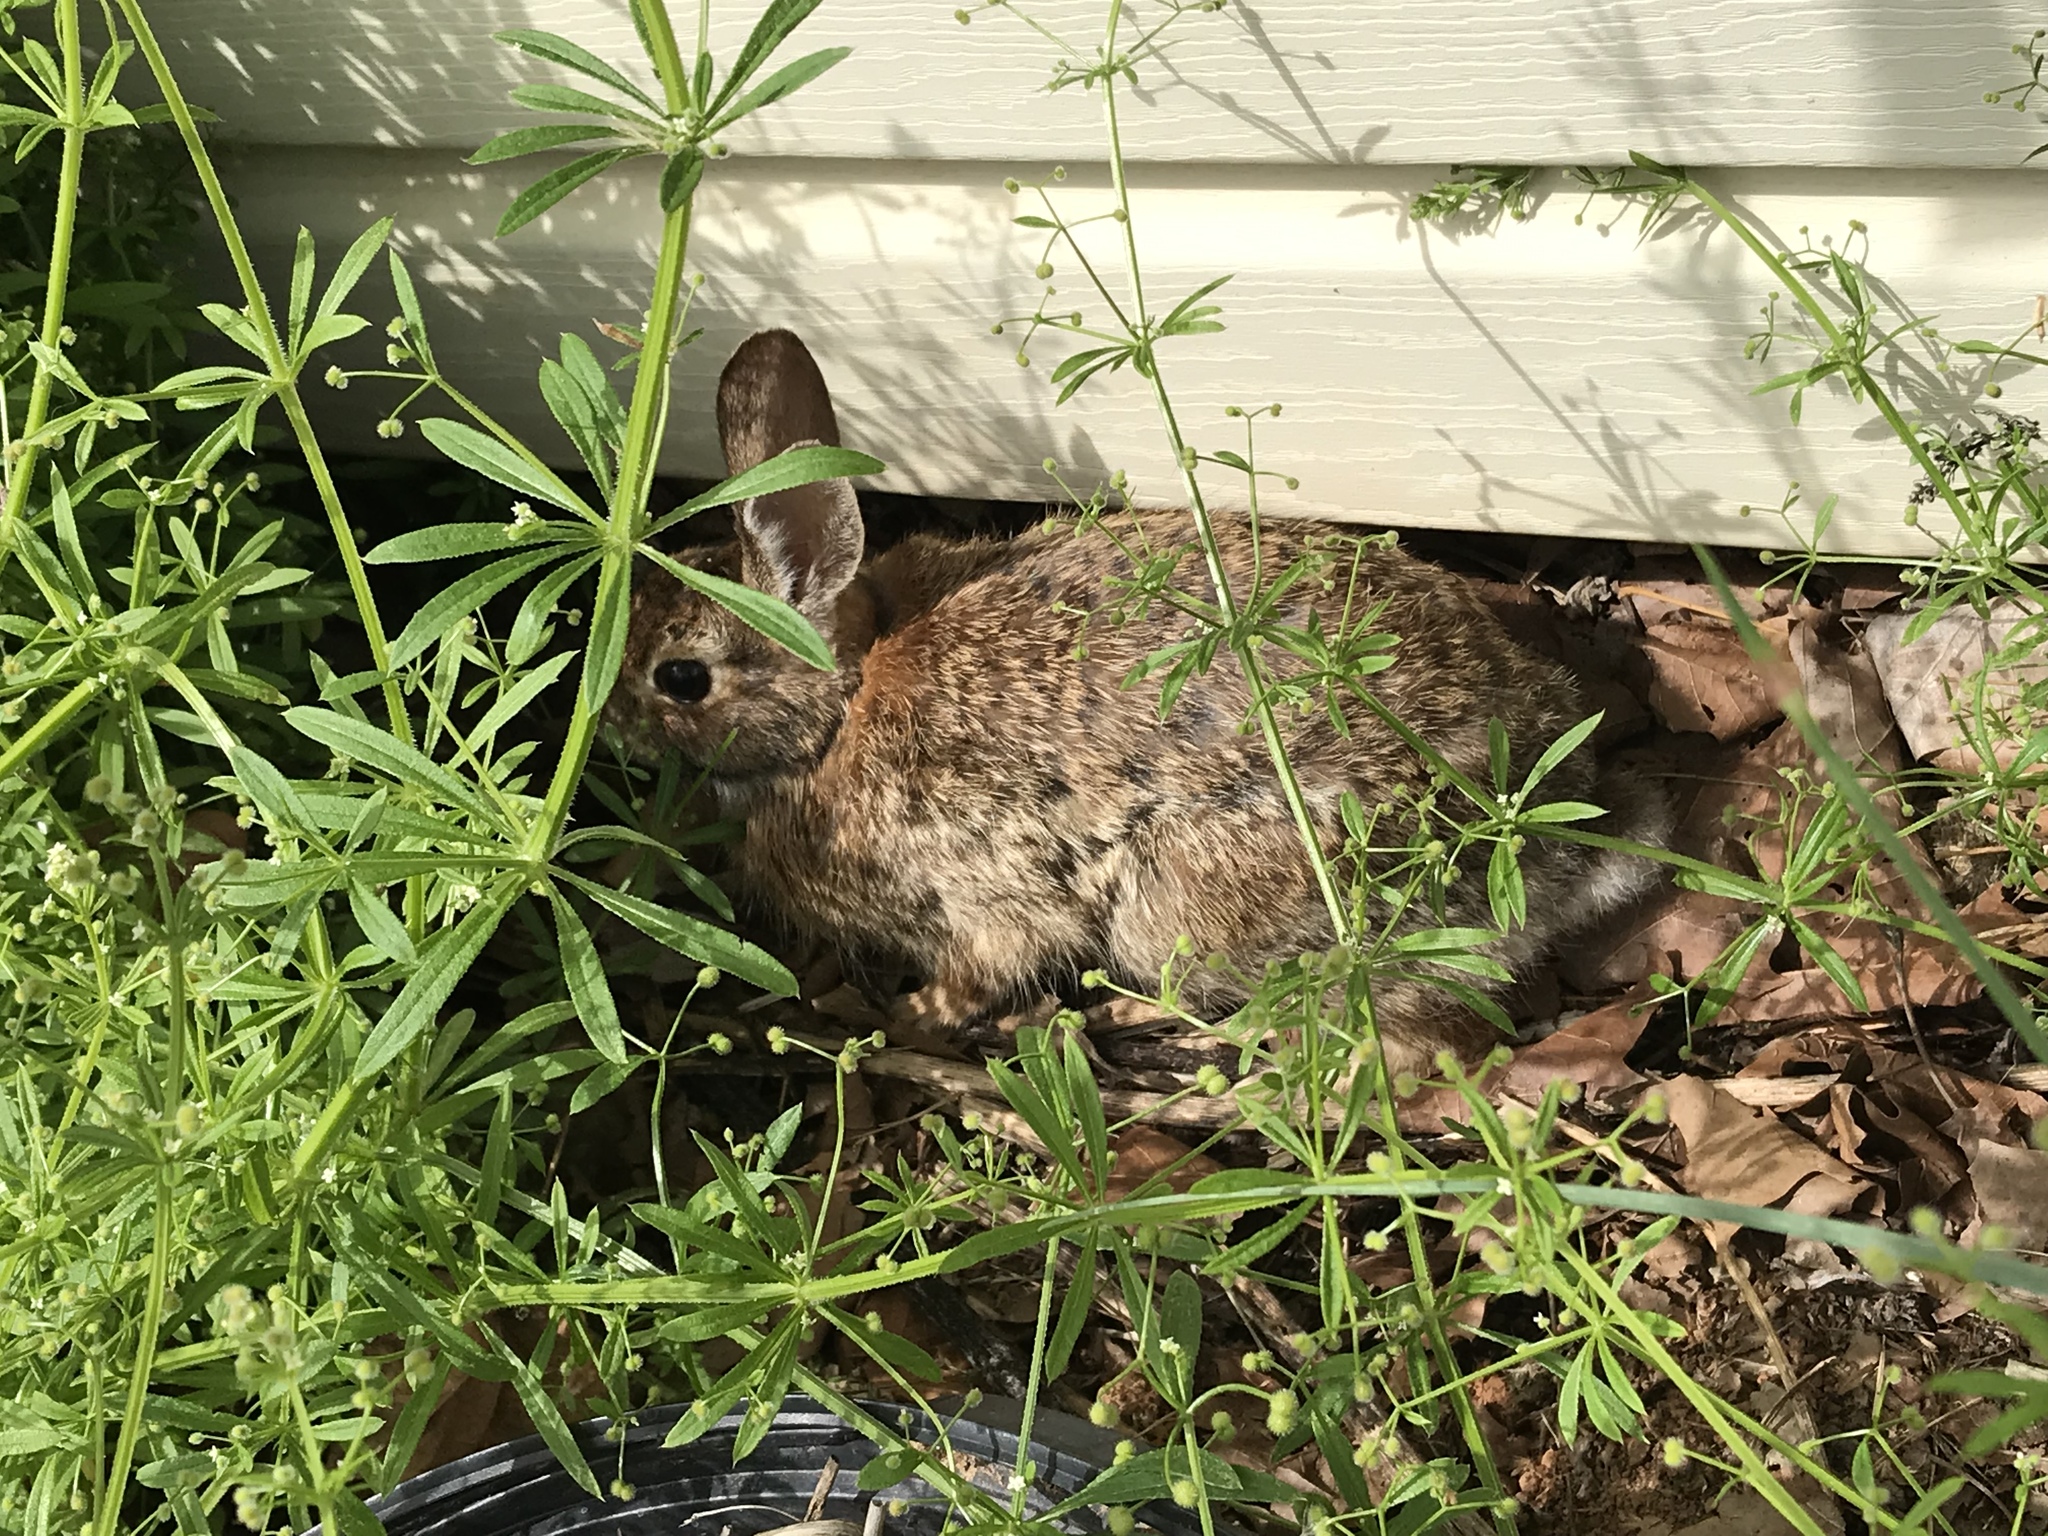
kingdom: Animalia
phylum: Chordata
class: Mammalia
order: Lagomorpha
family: Leporidae
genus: Sylvilagus
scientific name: Sylvilagus floridanus
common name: Eastern cottontail
